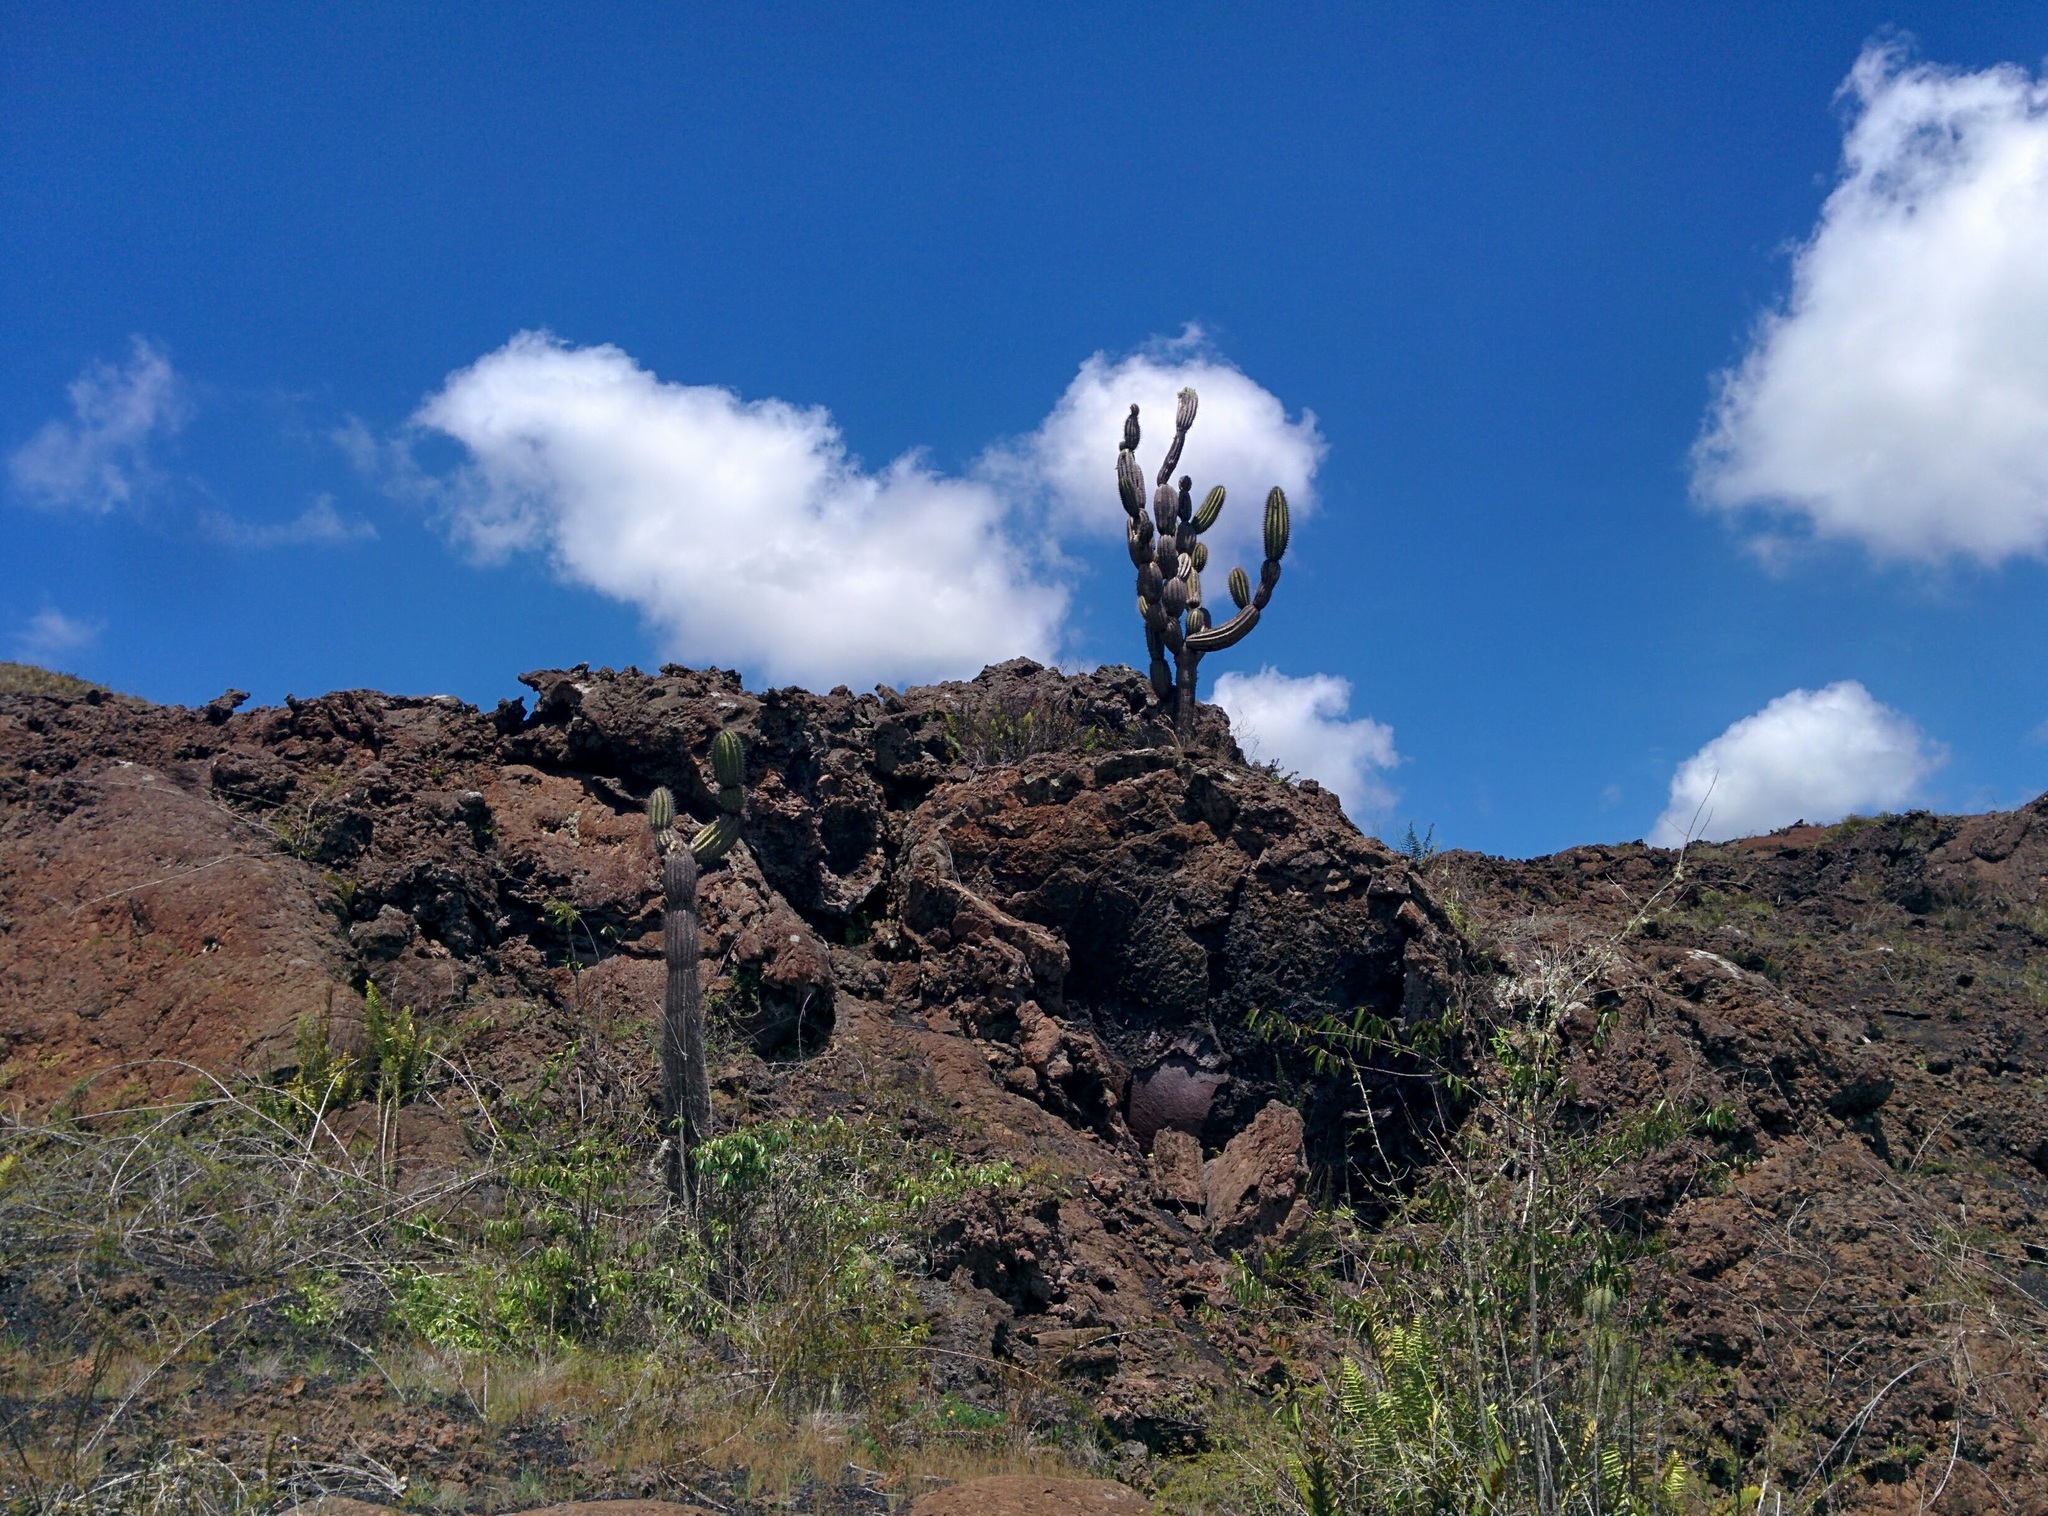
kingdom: Plantae
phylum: Tracheophyta
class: Magnoliopsida
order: Caryophyllales
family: Cactaceae
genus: Jasminocereus
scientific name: Jasminocereus thouarsii
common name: Candelabra cactus
